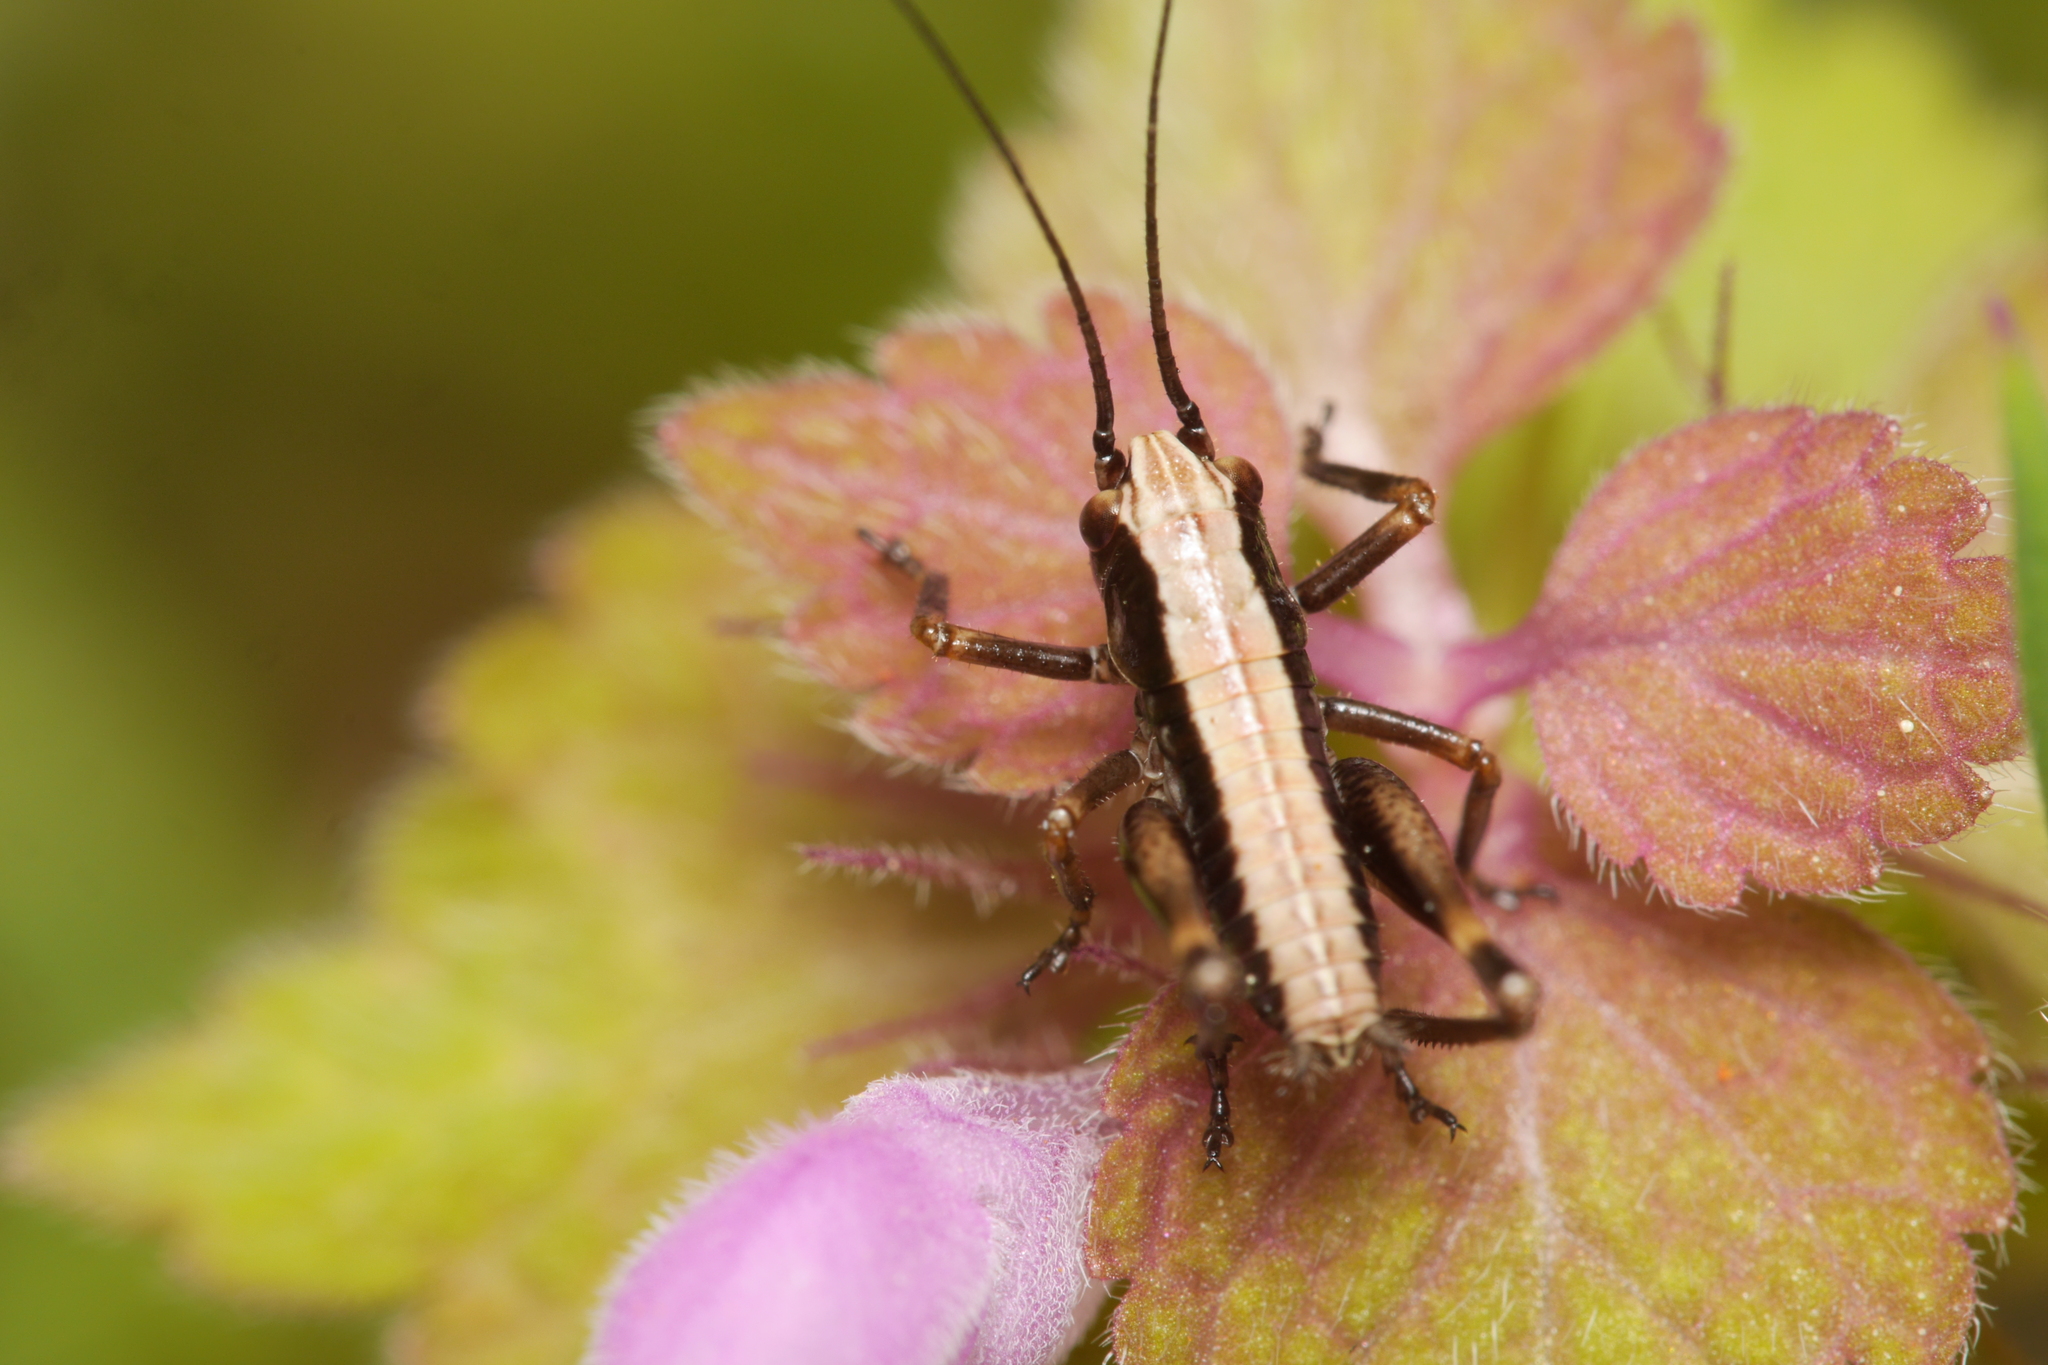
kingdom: Animalia
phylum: Arthropoda
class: Insecta
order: Orthoptera
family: Tettigoniidae
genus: Pholidoptera
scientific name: Pholidoptera griseoaptera
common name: Dark bush-cricket
